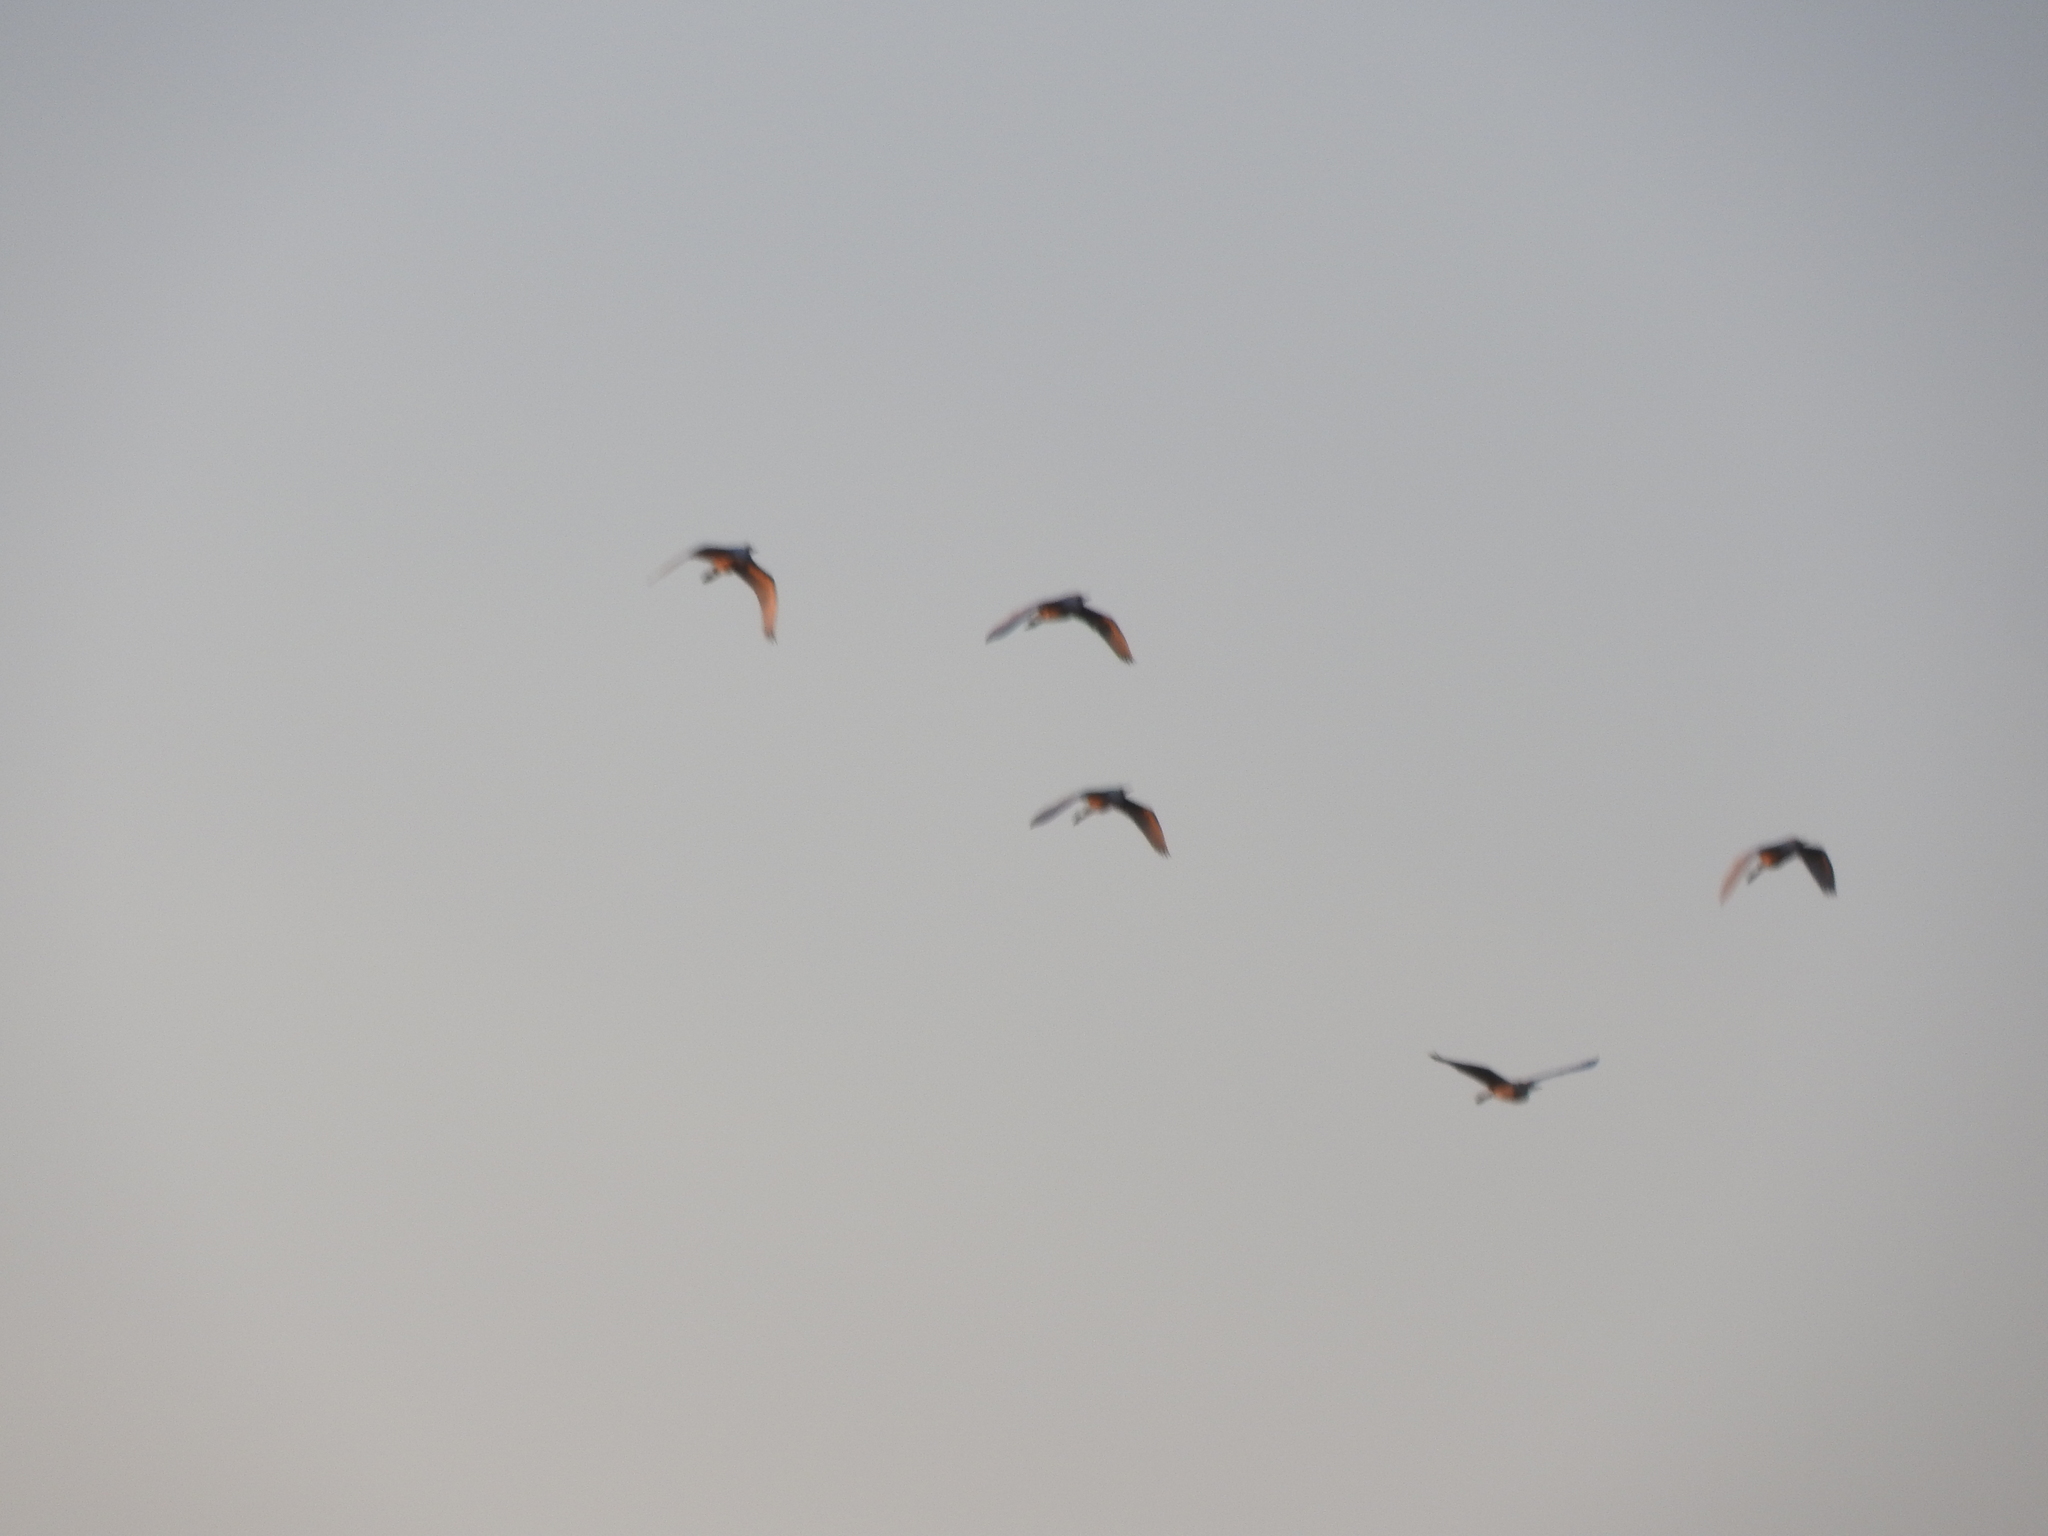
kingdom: Animalia
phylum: Chordata
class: Aves
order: Pelecaniformes
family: Ardeidae
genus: Bubulcus
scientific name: Bubulcus ibis
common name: Cattle egret
